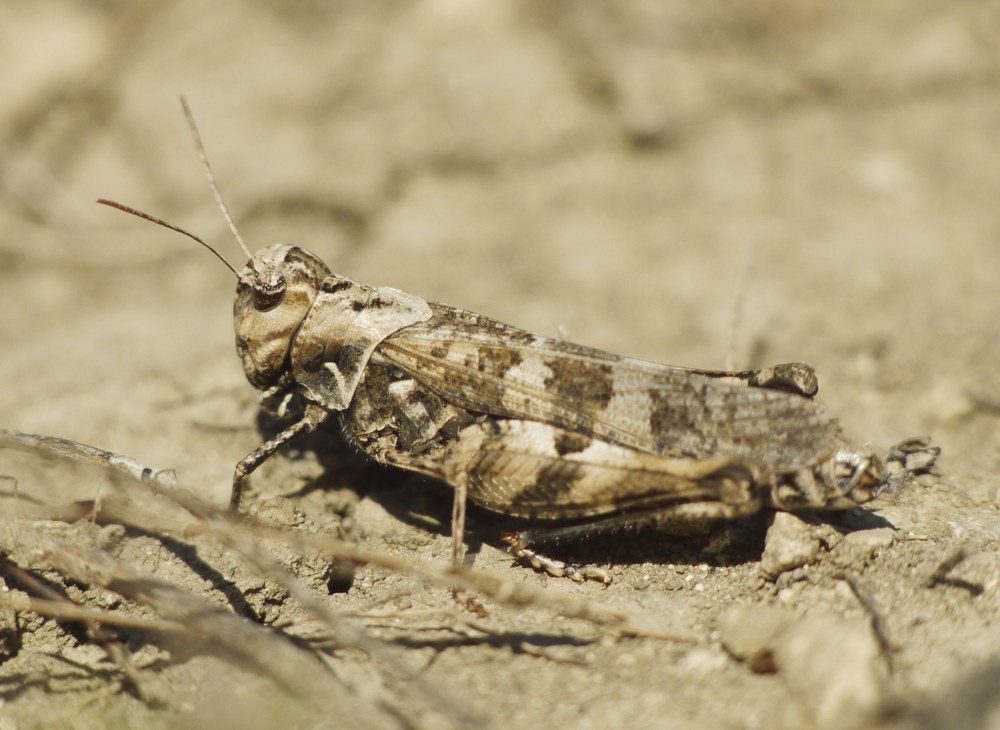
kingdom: Animalia
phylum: Arthropoda
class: Insecta
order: Orthoptera
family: Acrididae
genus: Celes
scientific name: Celes variabilis
